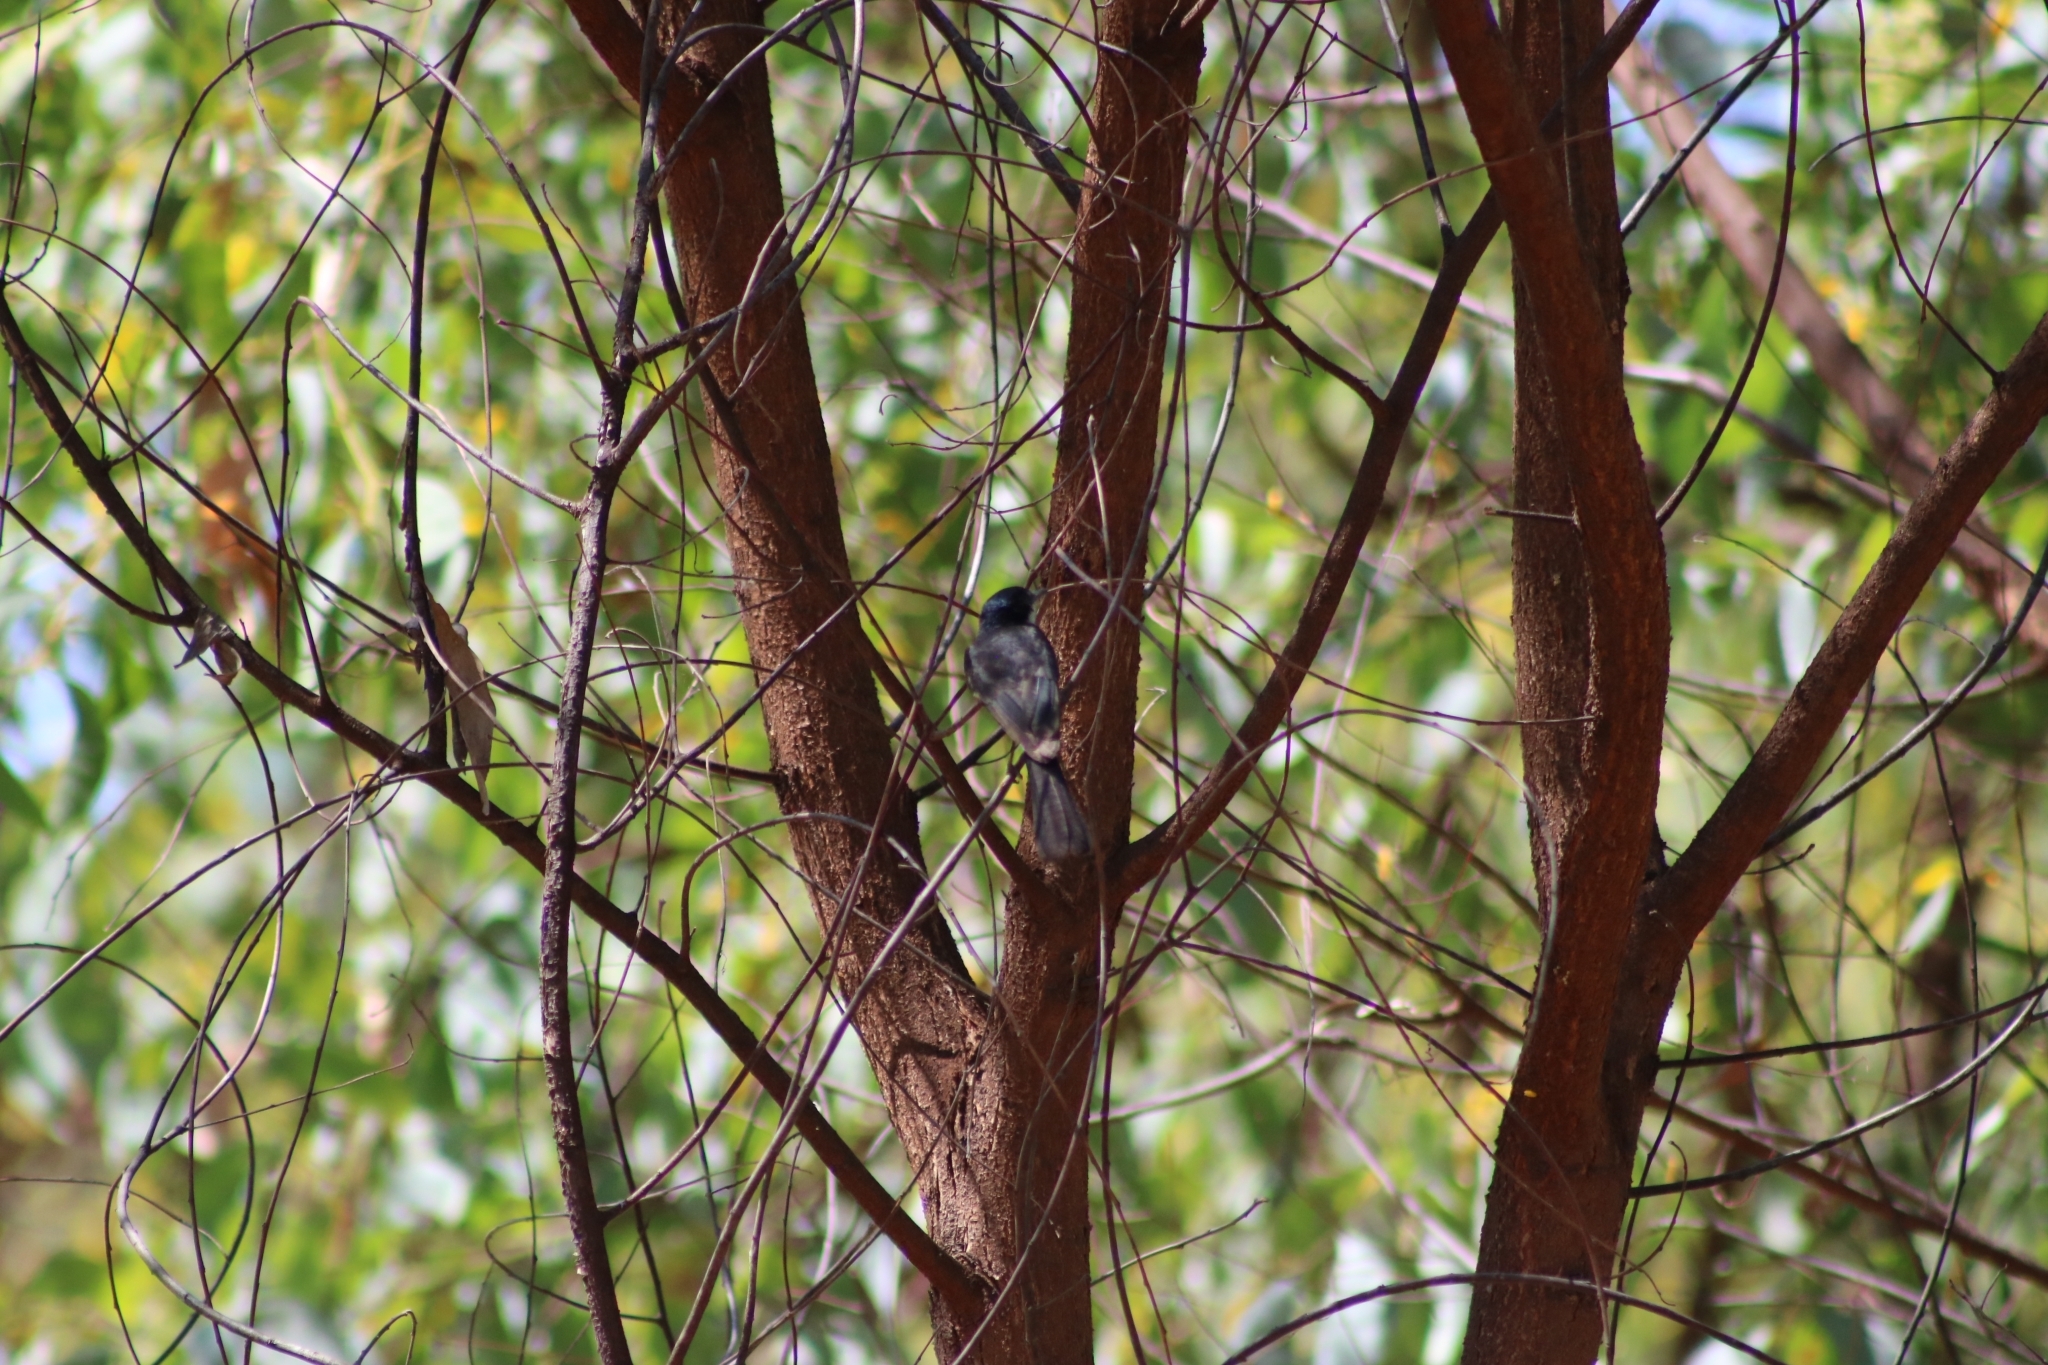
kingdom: Animalia
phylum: Chordata
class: Aves
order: Passeriformes
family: Monarchidae
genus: Myiagra
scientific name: Myiagra nana
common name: Paperbark flycatcher
